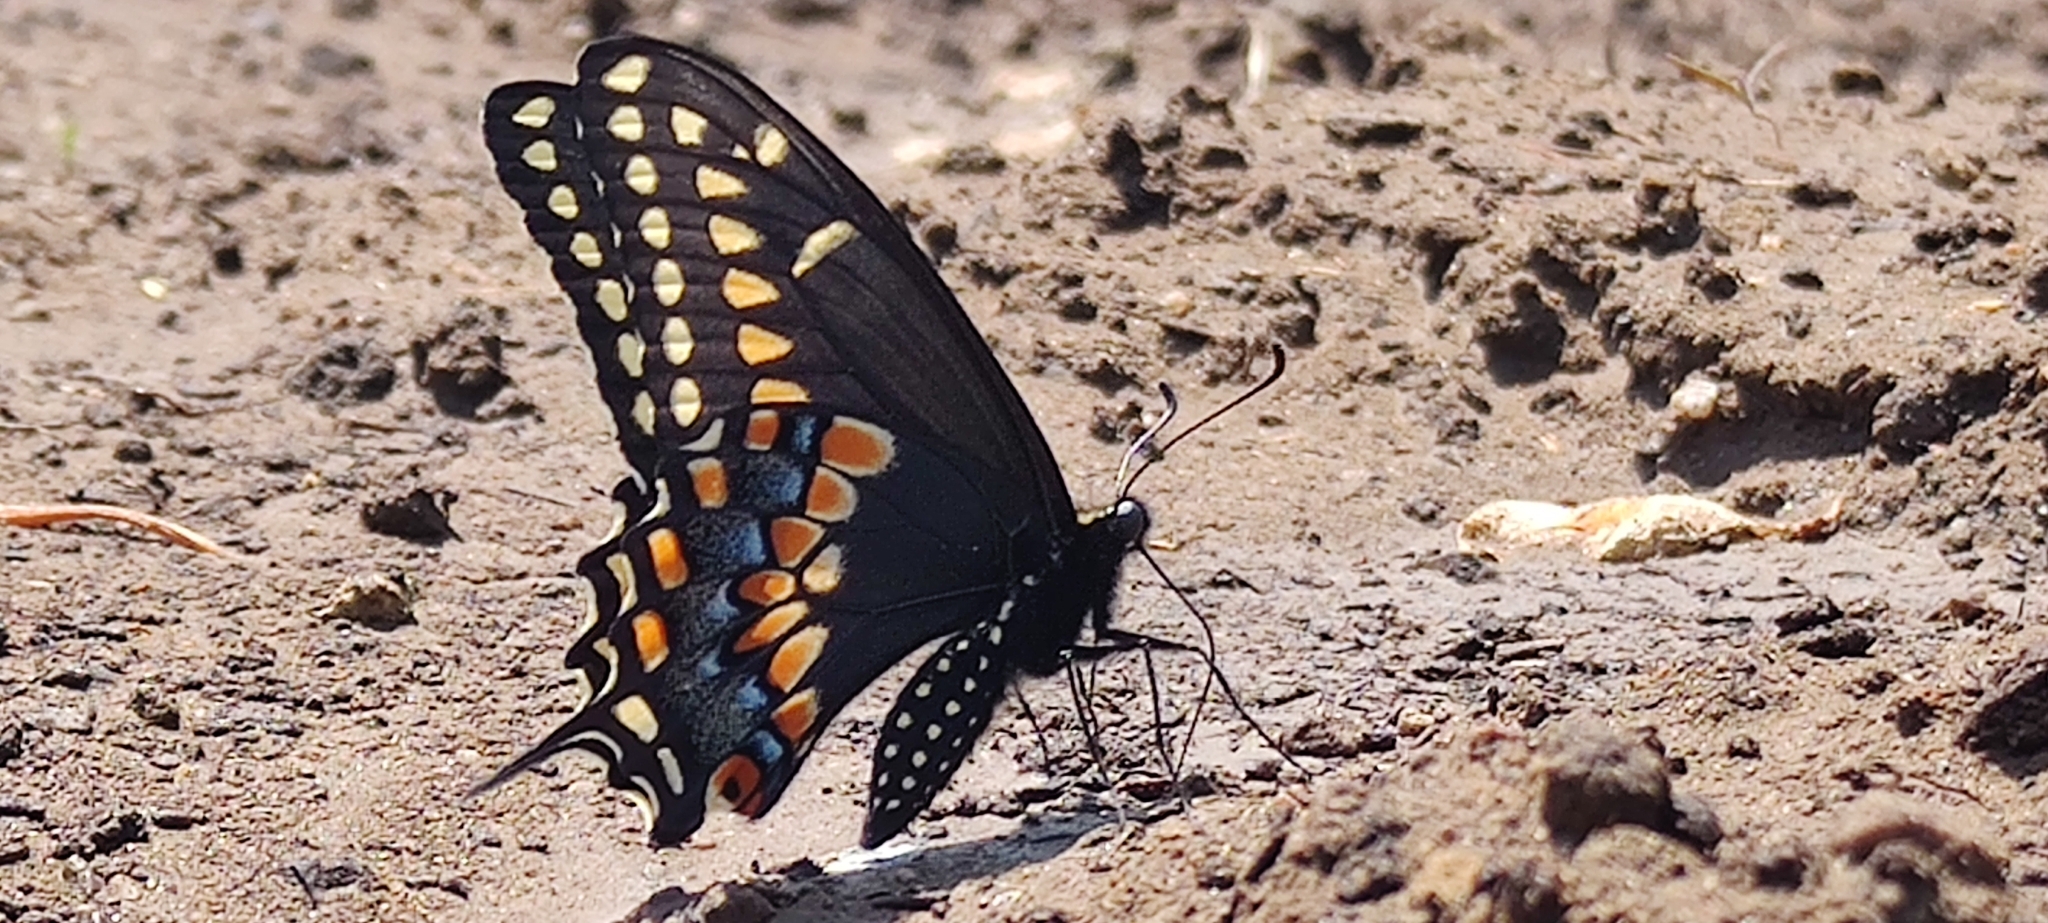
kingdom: Animalia
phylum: Arthropoda
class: Insecta
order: Lepidoptera
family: Papilionidae
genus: Papilio
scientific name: Papilio polyxenes
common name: Black swallowtail
